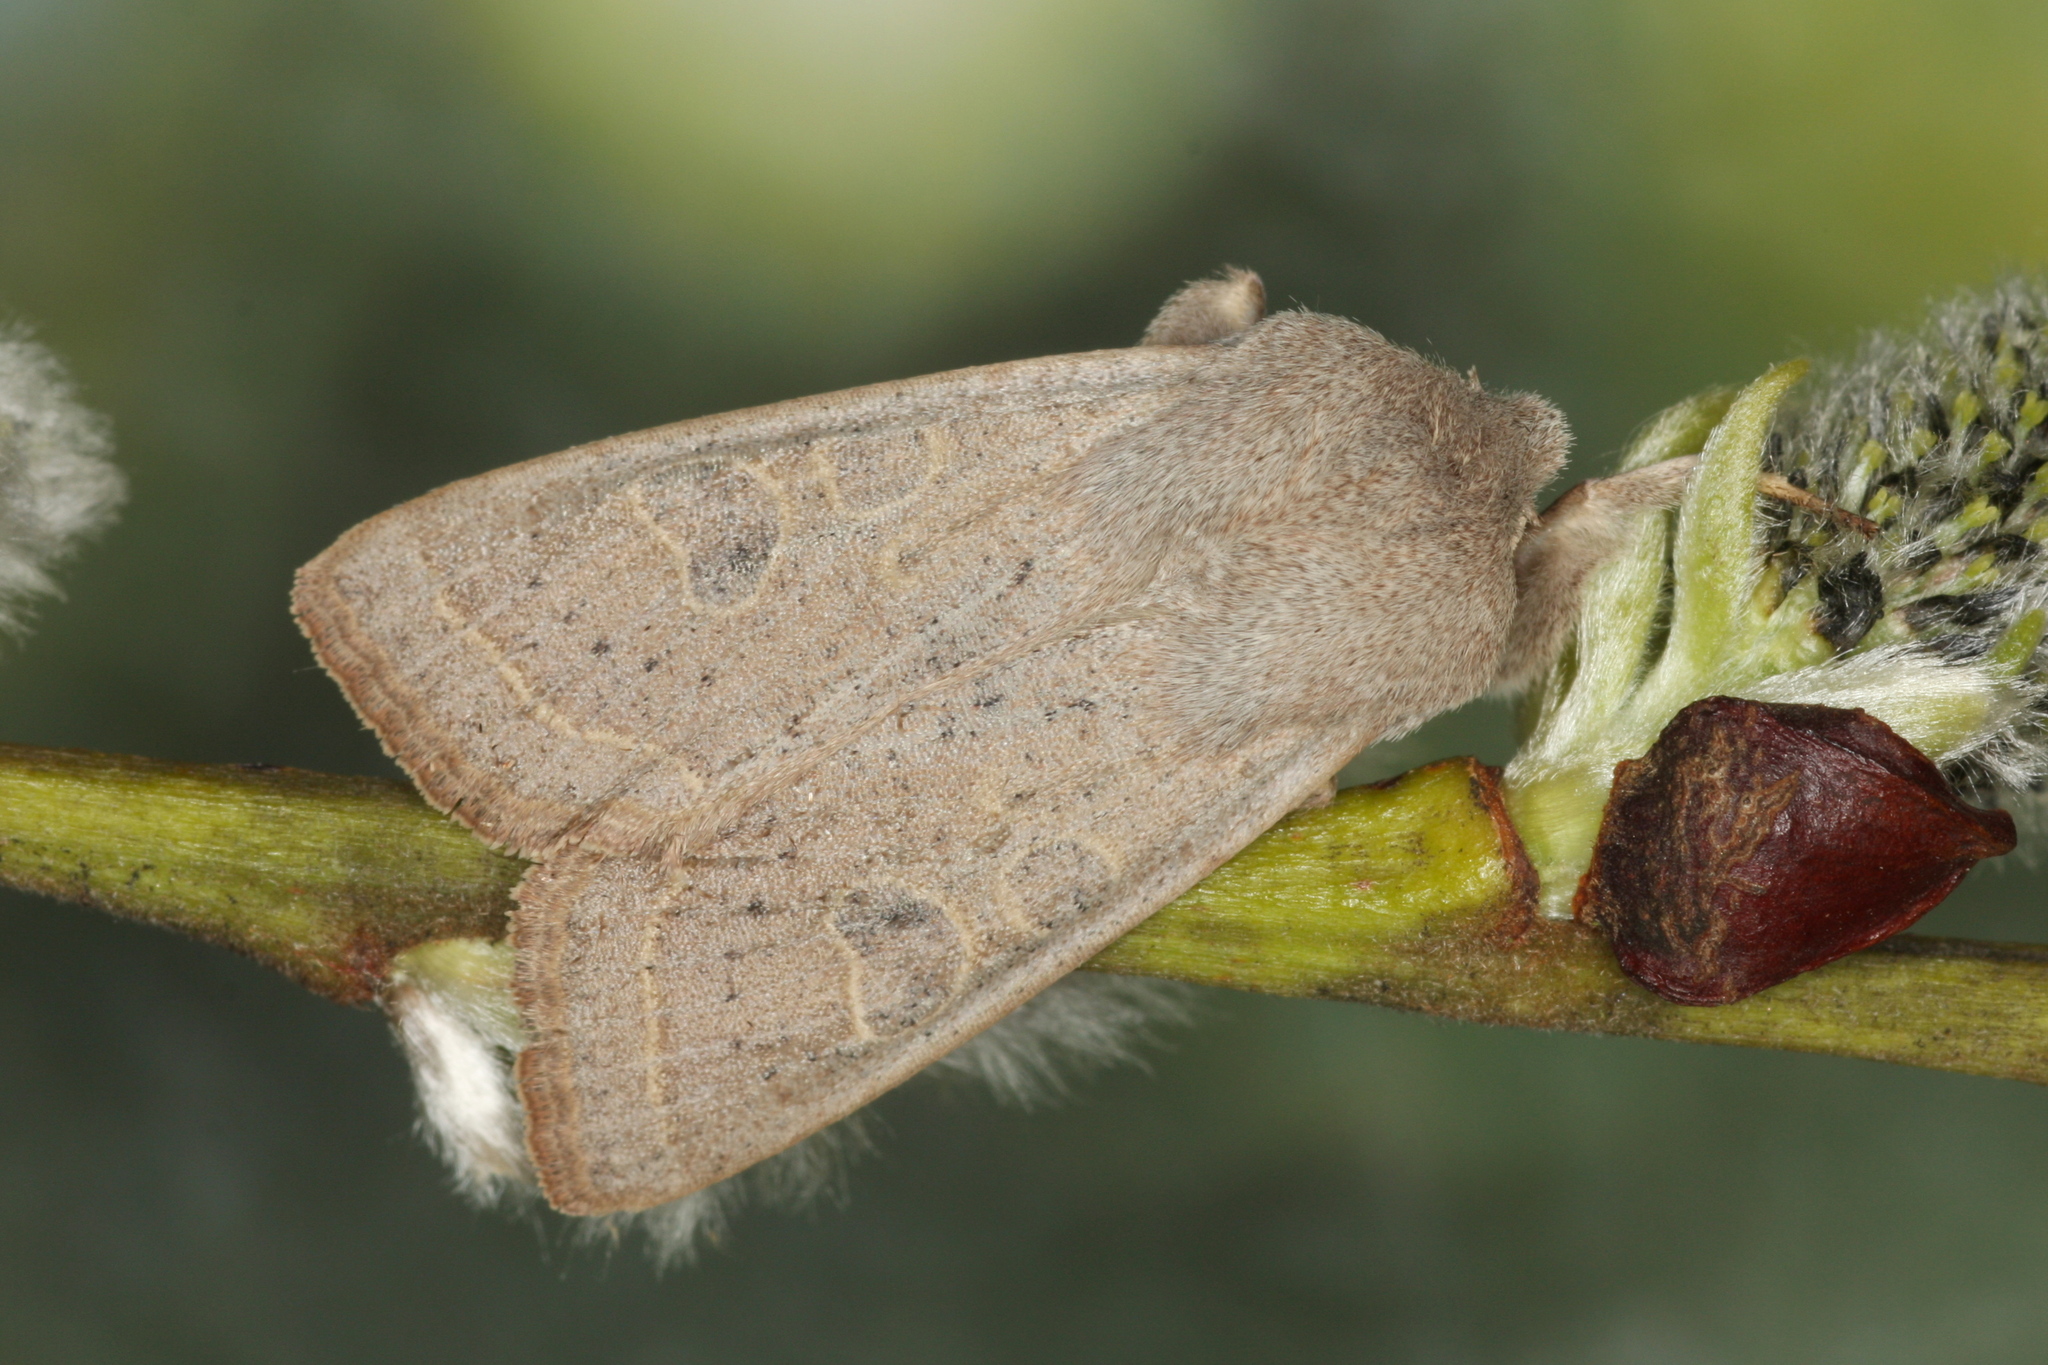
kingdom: Animalia
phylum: Arthropoda
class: Insecta
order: Lepidoptera
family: Noctuidae
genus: Orthosia
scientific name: Orthosia gracilis
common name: Powdered quaker
